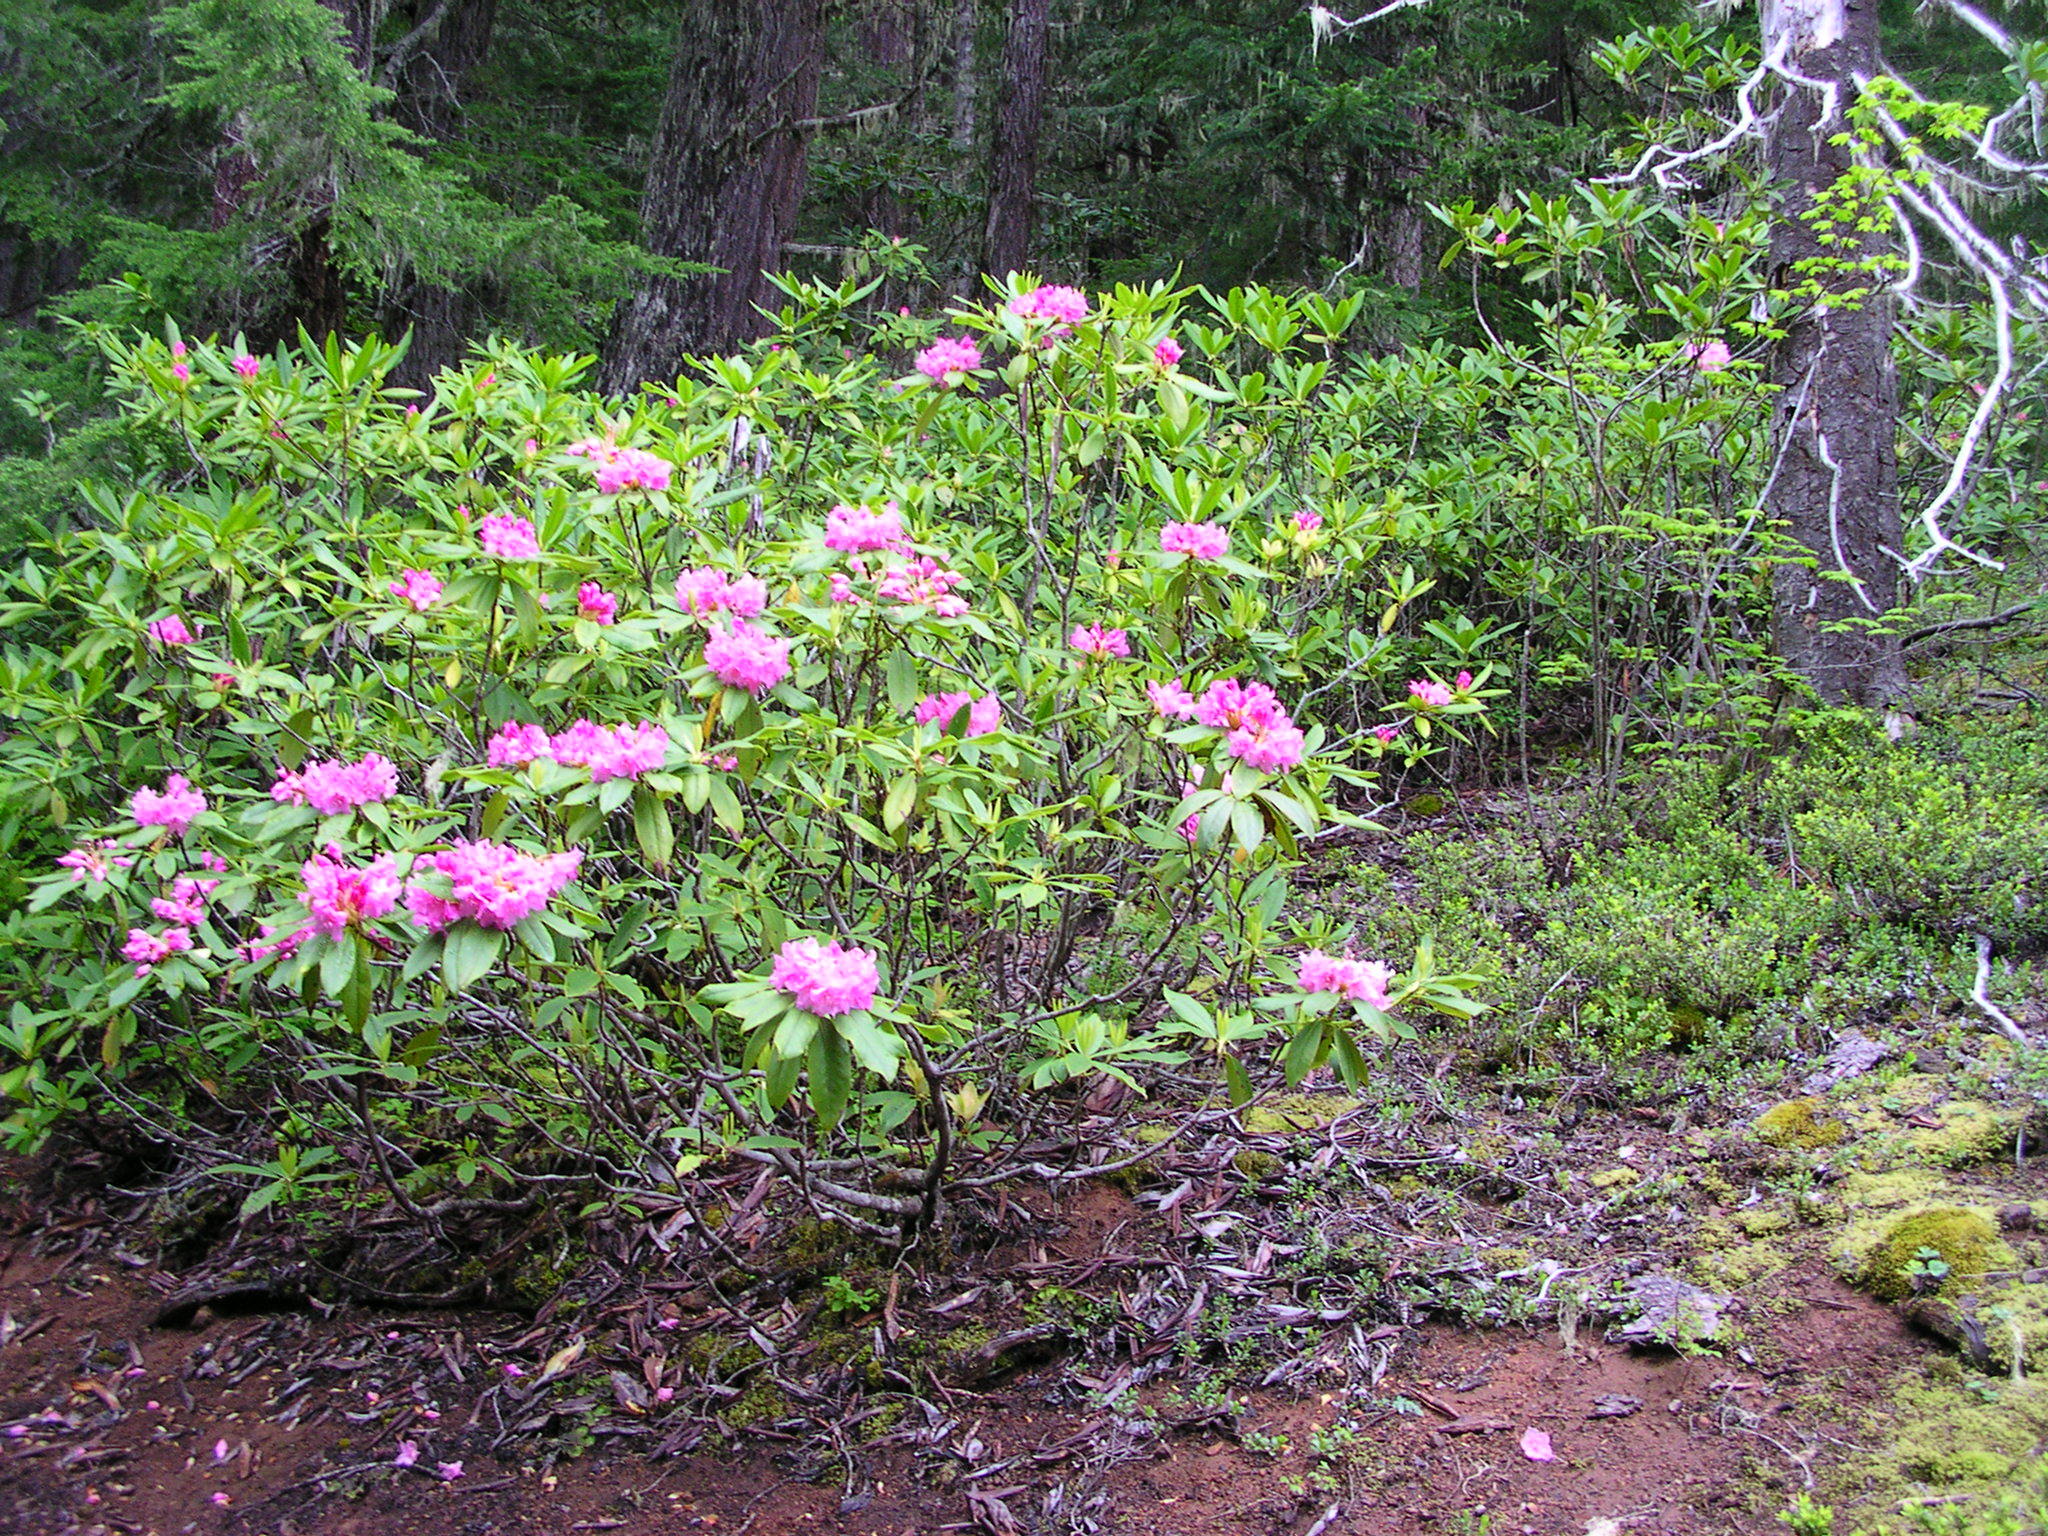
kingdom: Plantae
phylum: Tracheophyta
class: Magnoliopsida
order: Ericales
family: Ericaceae
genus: Rhododendron
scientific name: Rhododendron macrophyllum
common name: California rose bay
